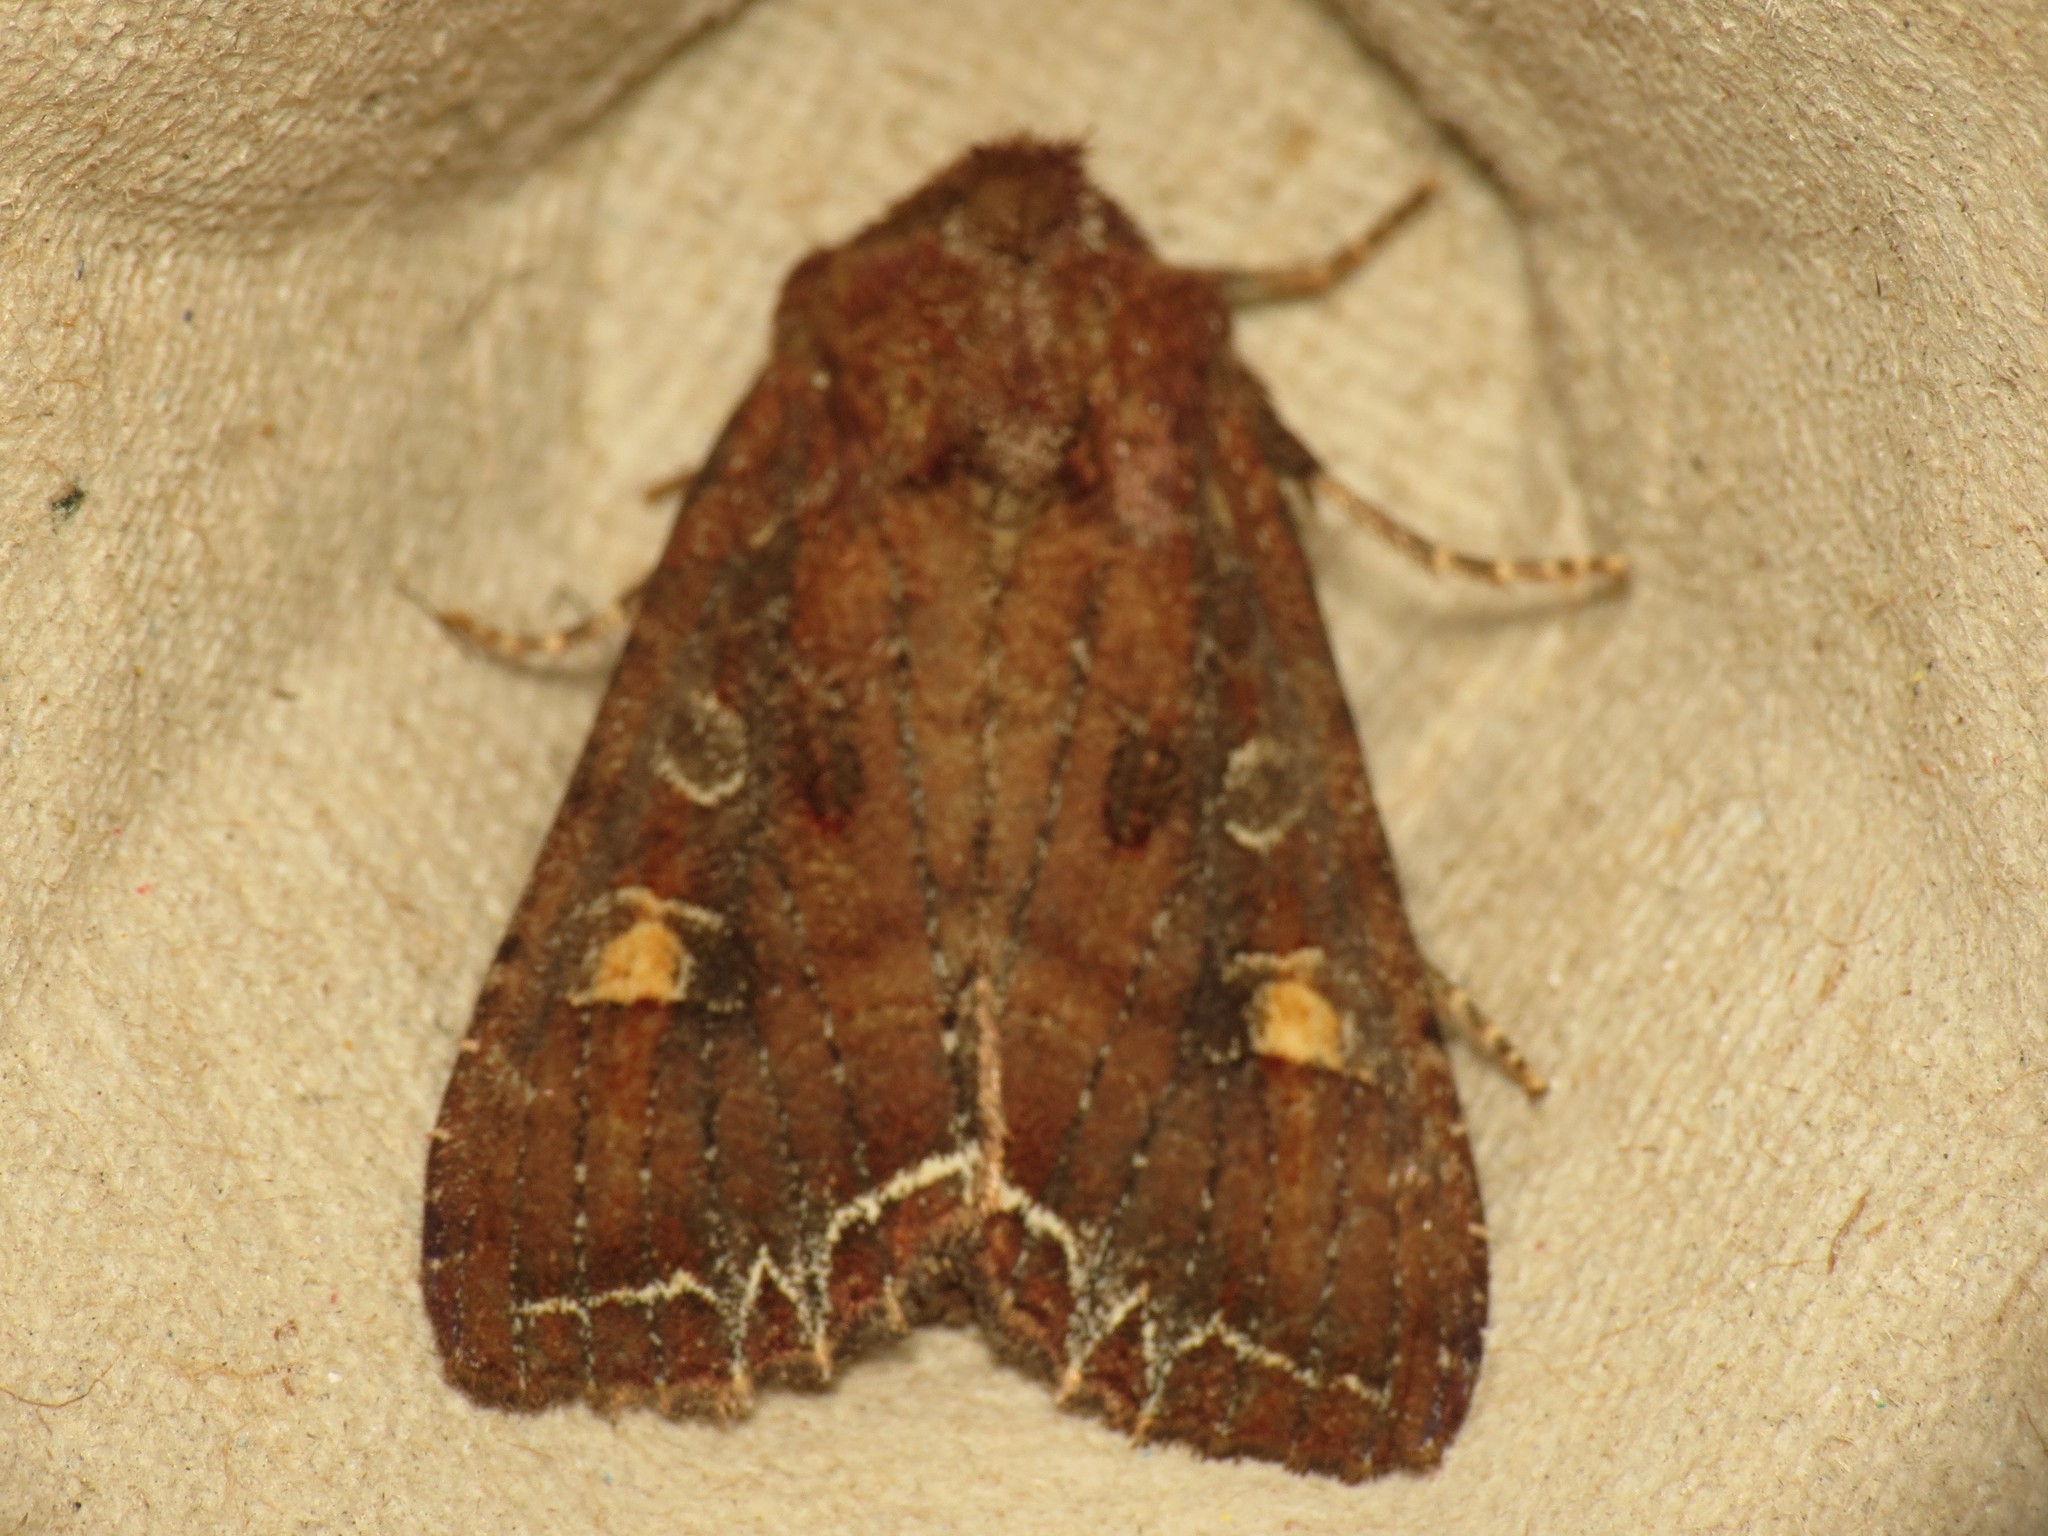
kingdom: Animalia
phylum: Arthropoda
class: Insecta
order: Lepidoptera
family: Noctuidae
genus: Lacanobia
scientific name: Lacanobia oleracea
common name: Bright-line brown-eye
